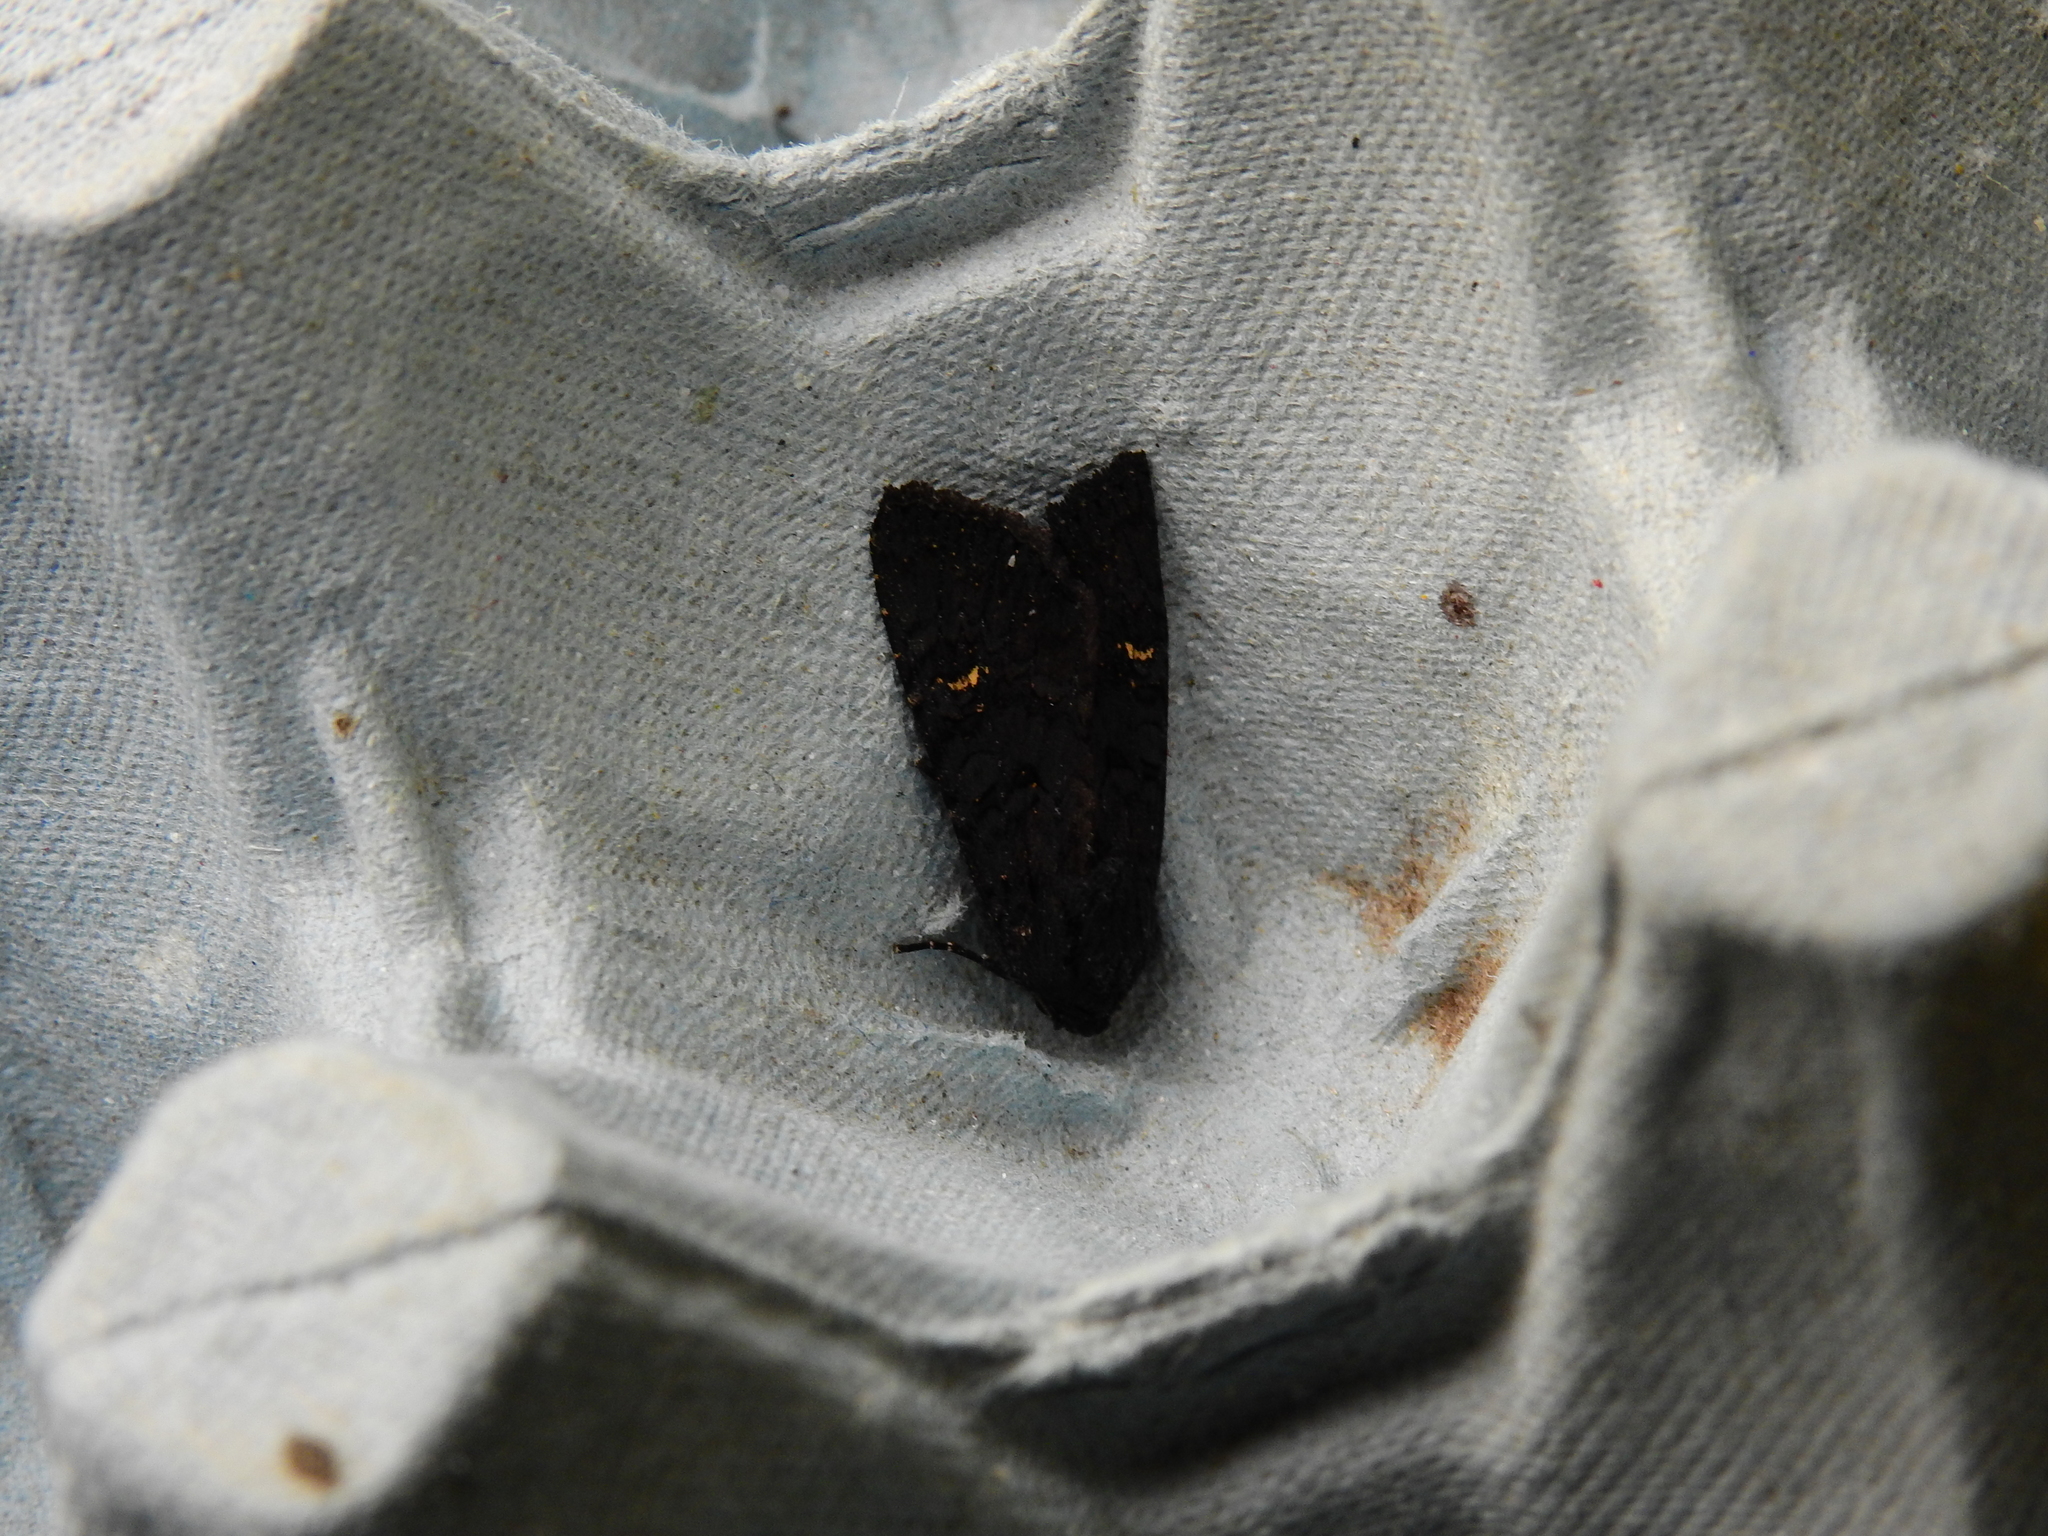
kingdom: Animalia
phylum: Arthropoda
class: Insecta
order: Lepidoptera
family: Noctuidae
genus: Aporophyla
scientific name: Aporophyla nigra
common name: Black rustic
